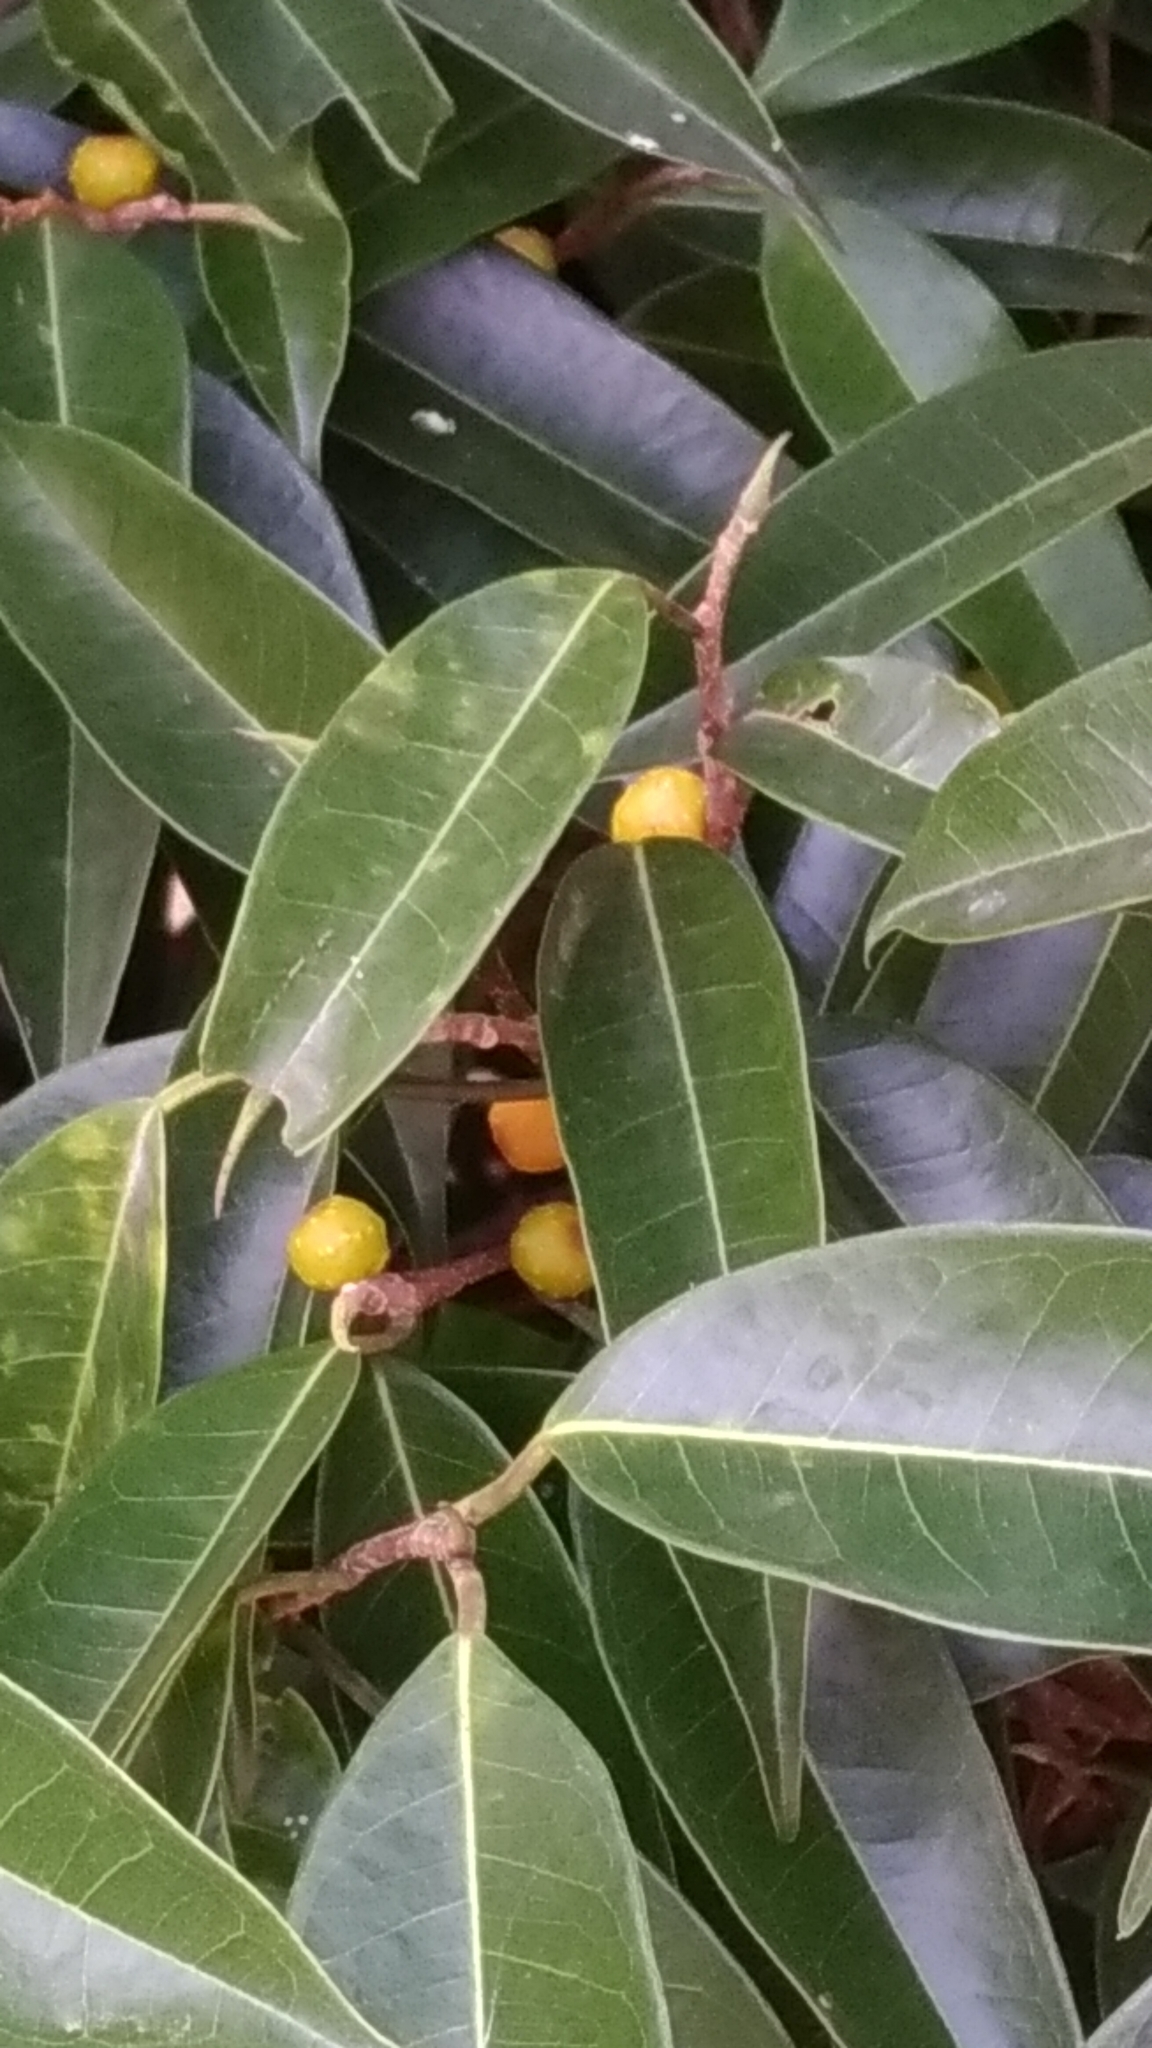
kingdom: Plantae
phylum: Tracheophyta
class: Magnoliopsida
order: Rosales
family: Moraceae
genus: Ficus
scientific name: Ficus sarmentosa
